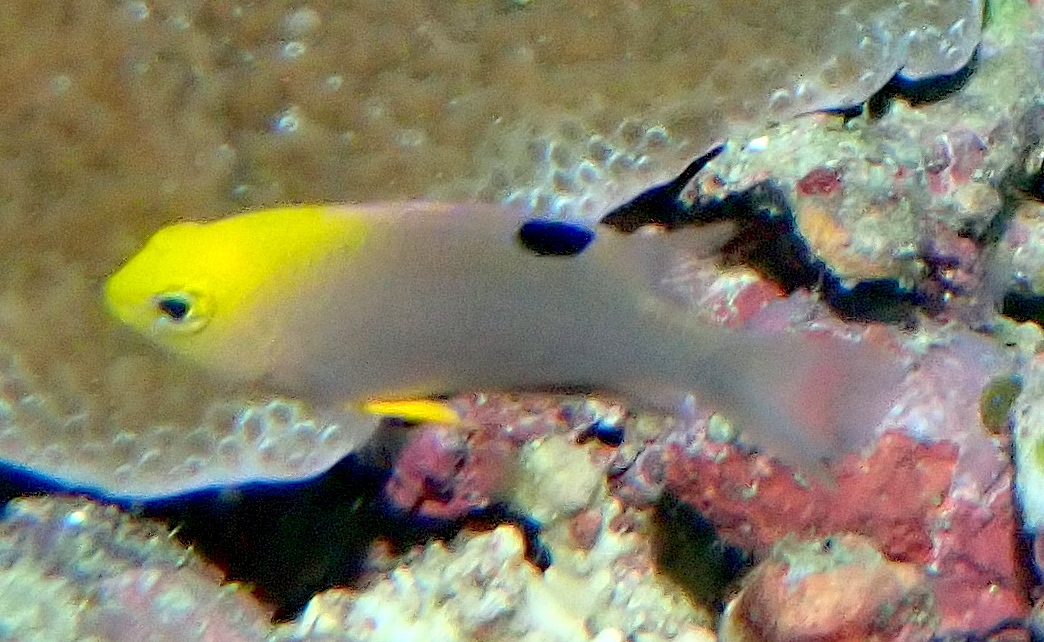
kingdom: Animalia
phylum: Chordata
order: Perciformes
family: Pomacentridae
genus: Chrysiptera
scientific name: Chrysiptera talboti
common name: Talbot's demoiselle
